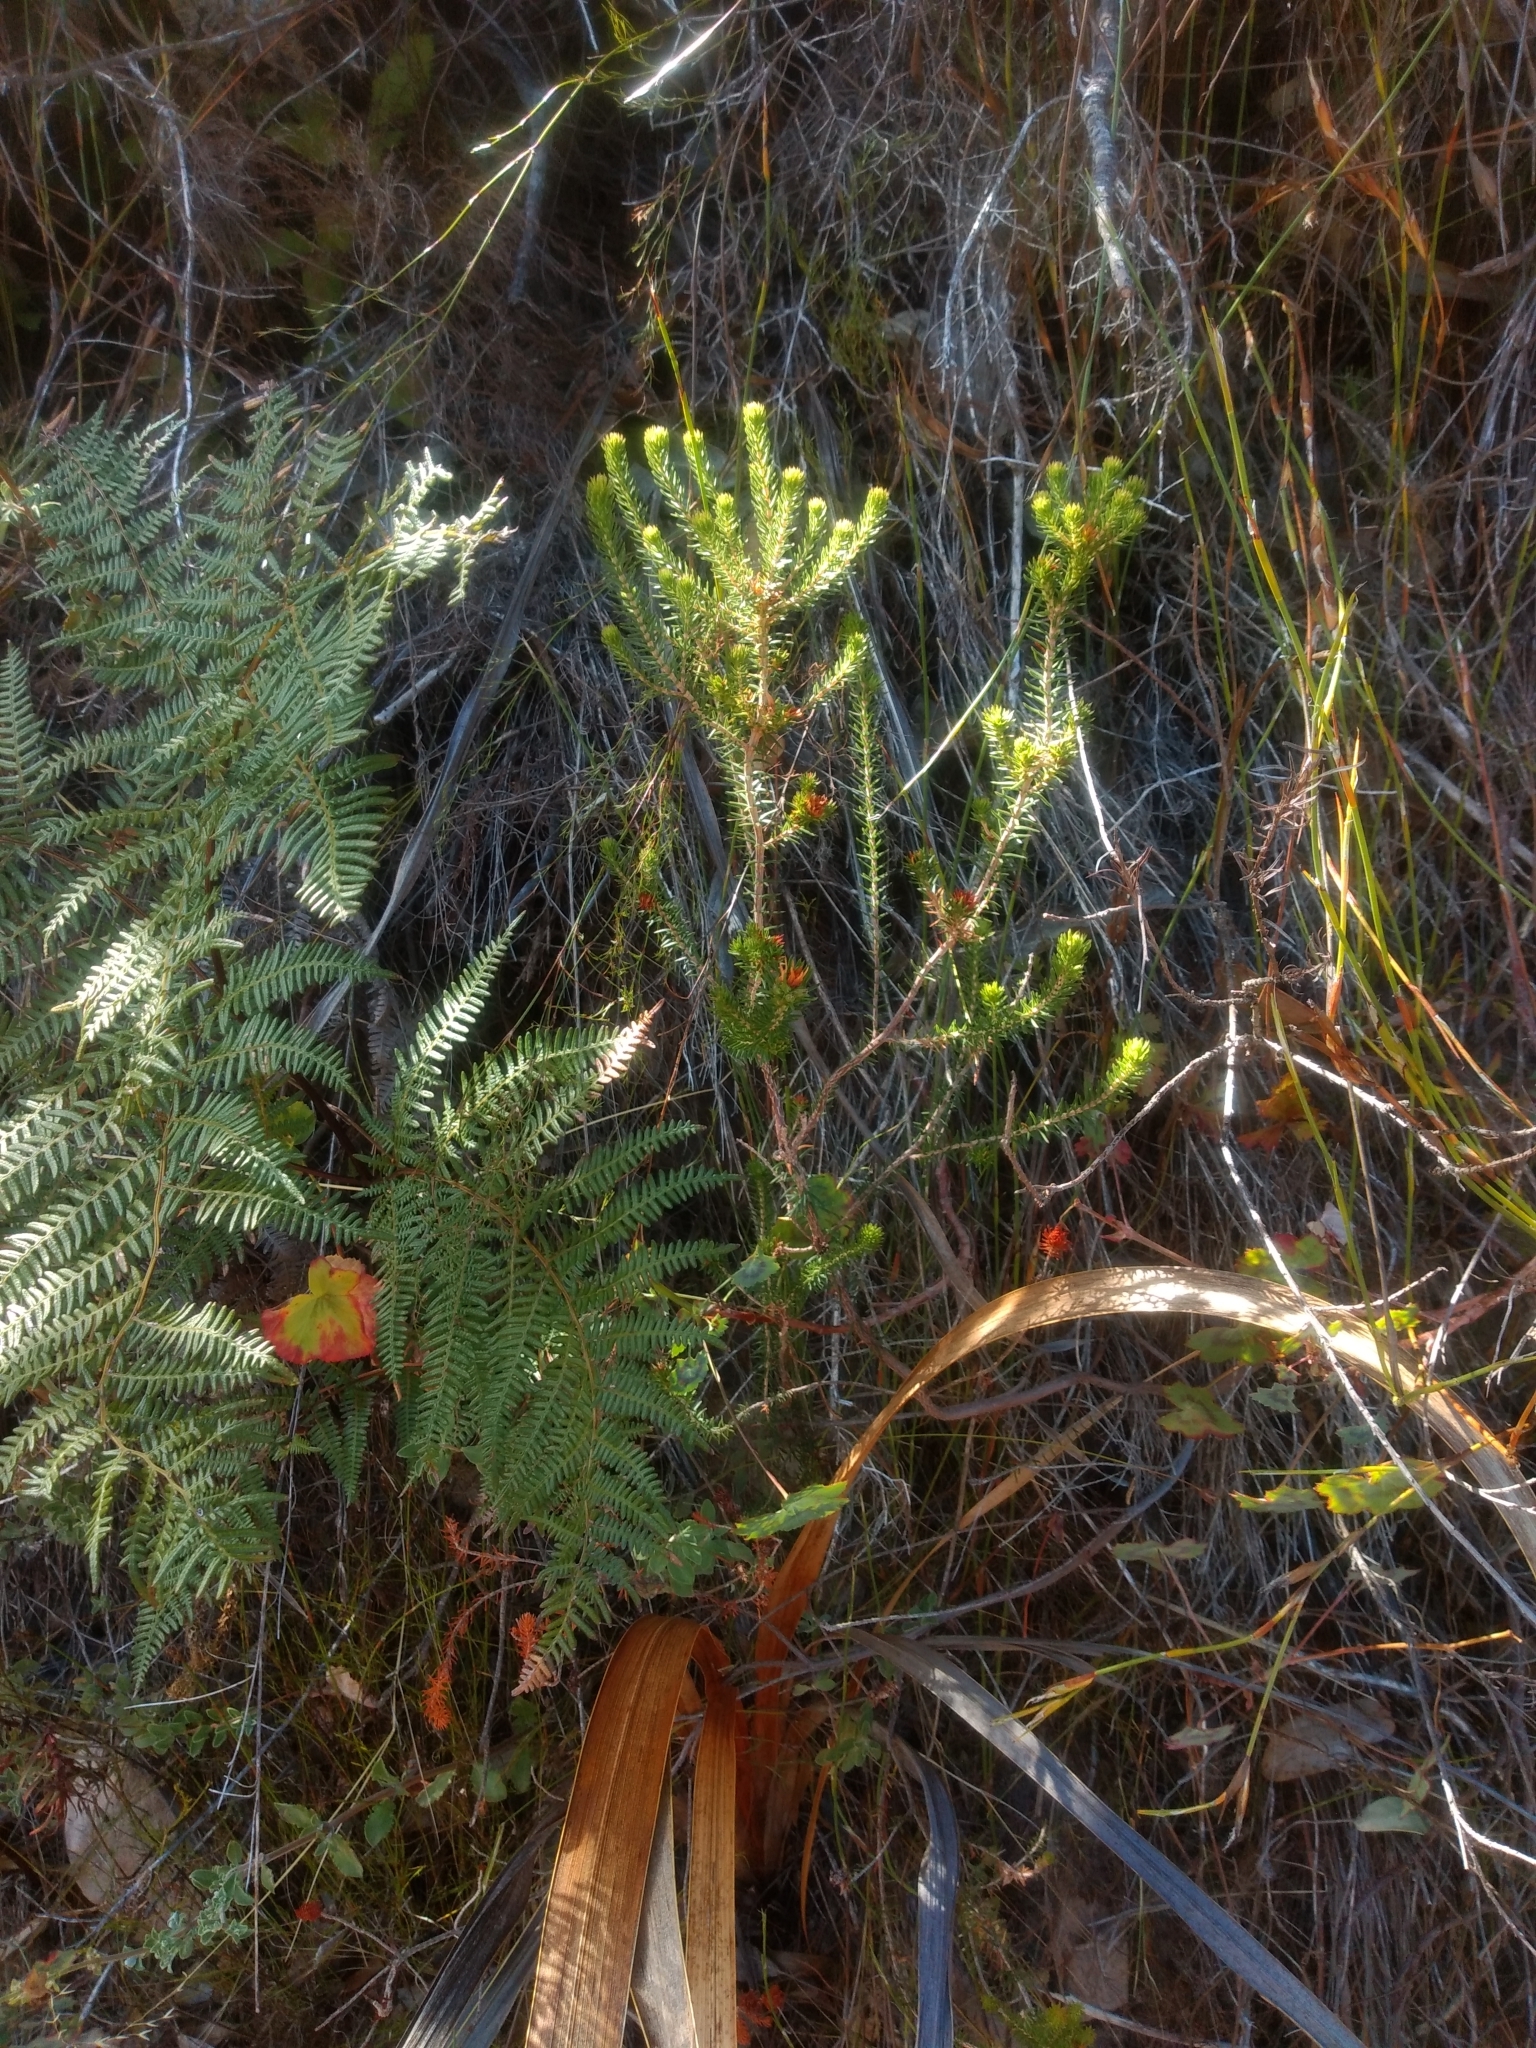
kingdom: Plantae
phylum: Tracheophyta
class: Magnoliopsida
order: Ericales
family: Ericaceae
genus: Erica
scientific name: Erica abietina
